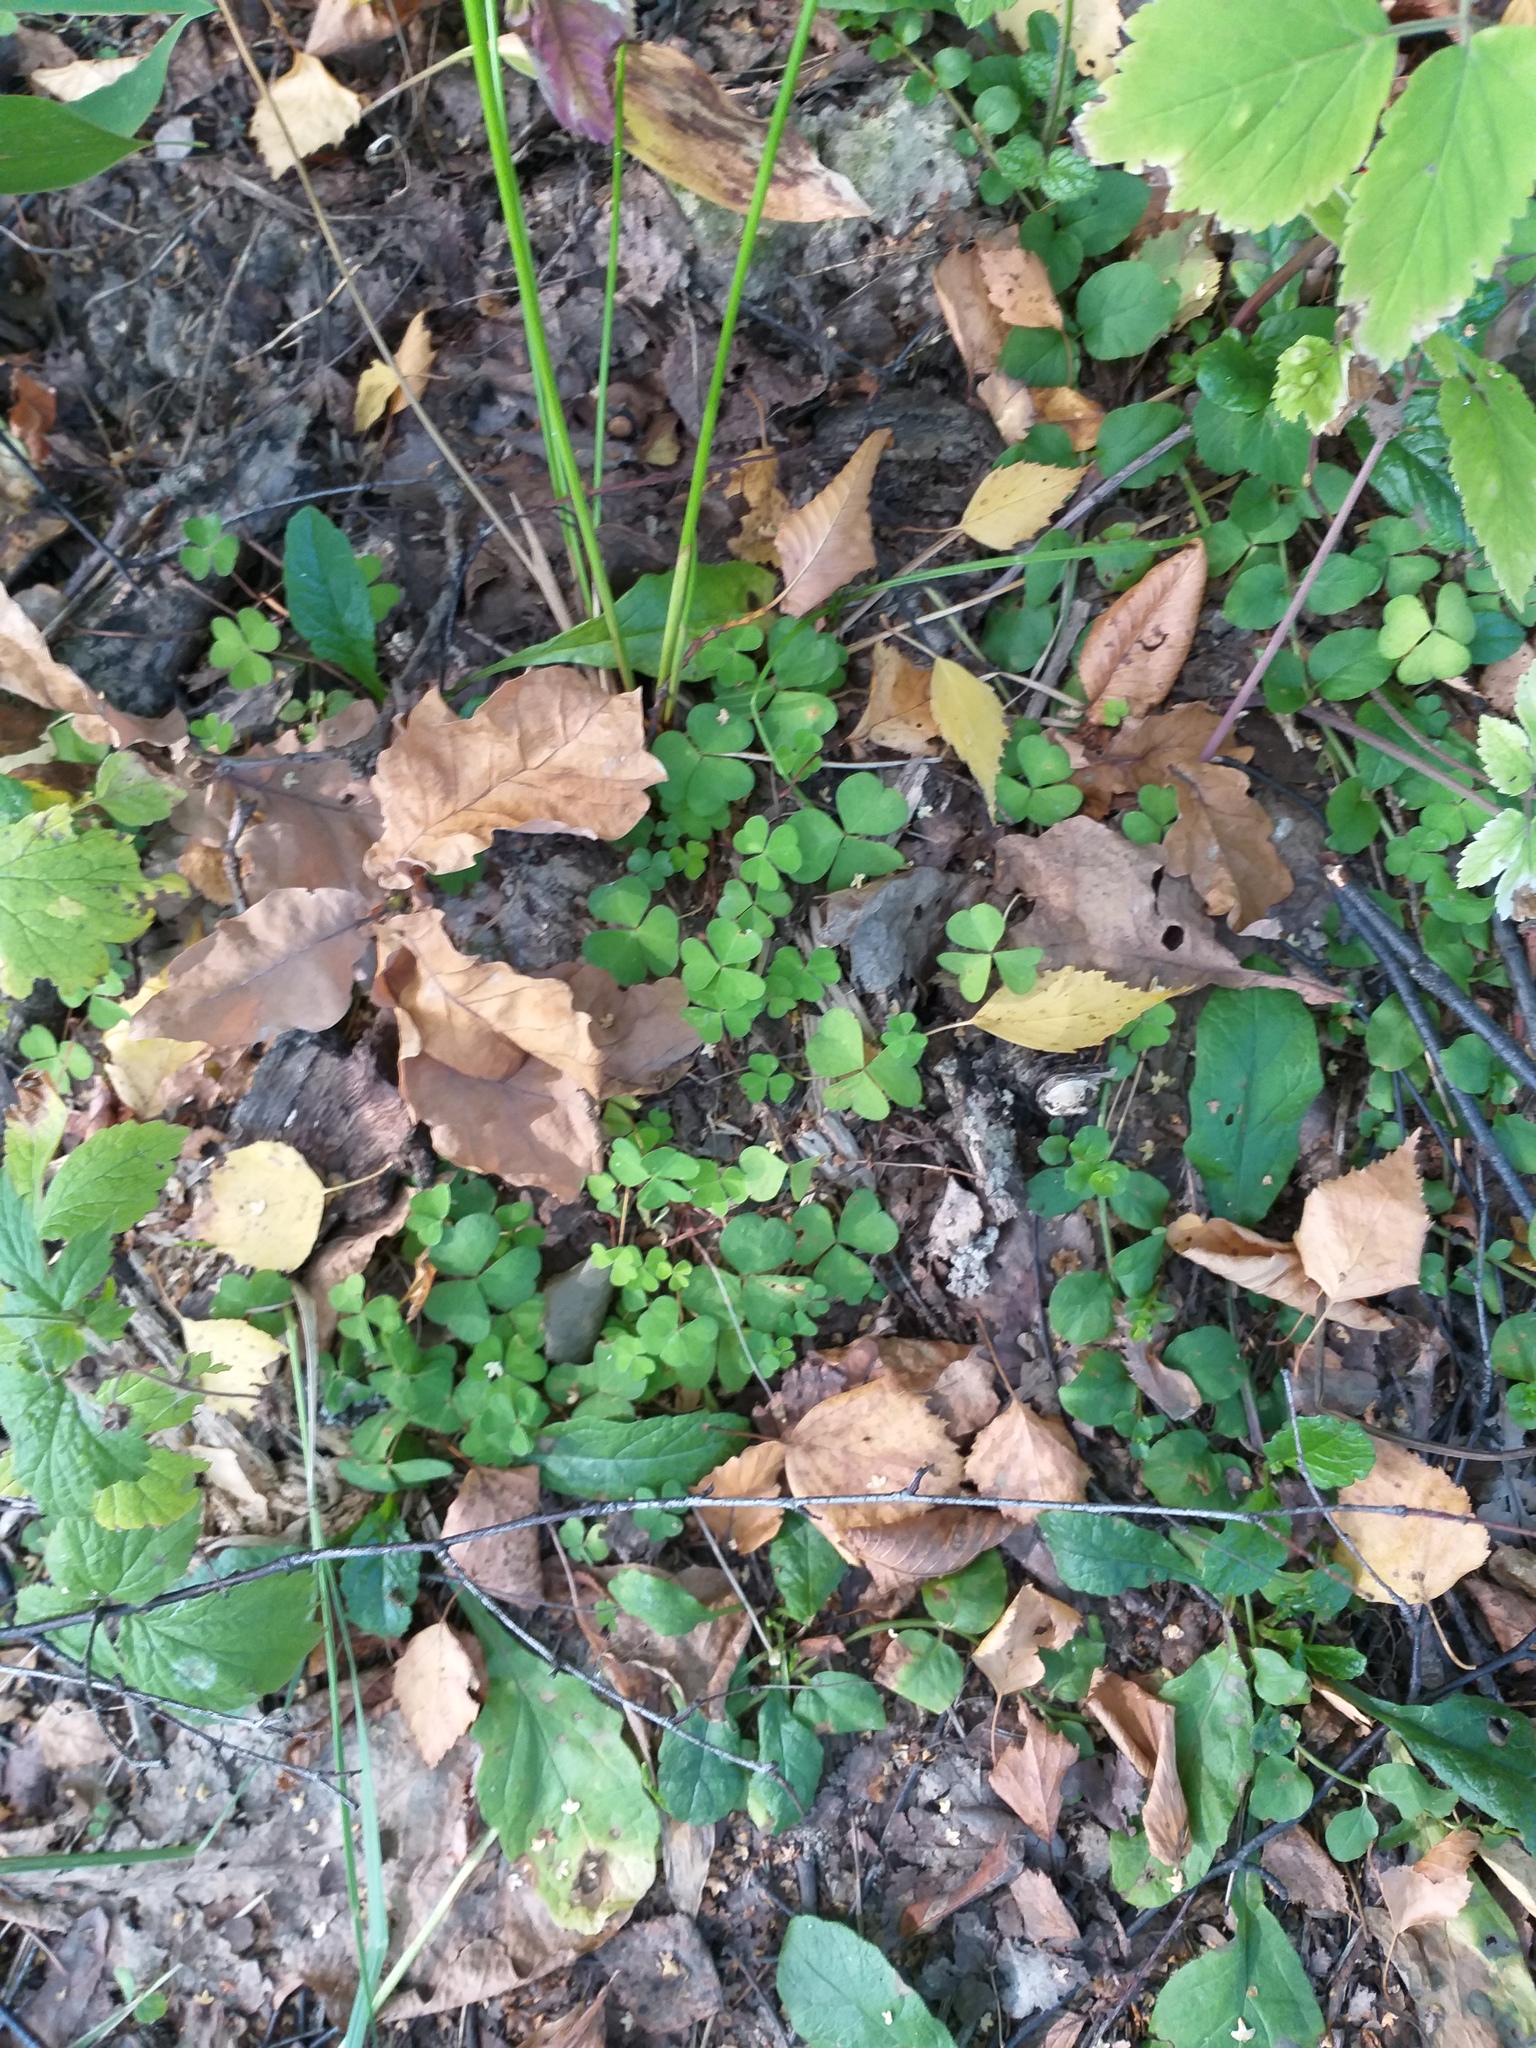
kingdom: Plantae
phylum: Tracheophyta
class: Magnoliopsida
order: Oxalidales
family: Oxalidaceae
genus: Oxalis
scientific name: Oxalis acetosella
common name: Wood-sorrel
